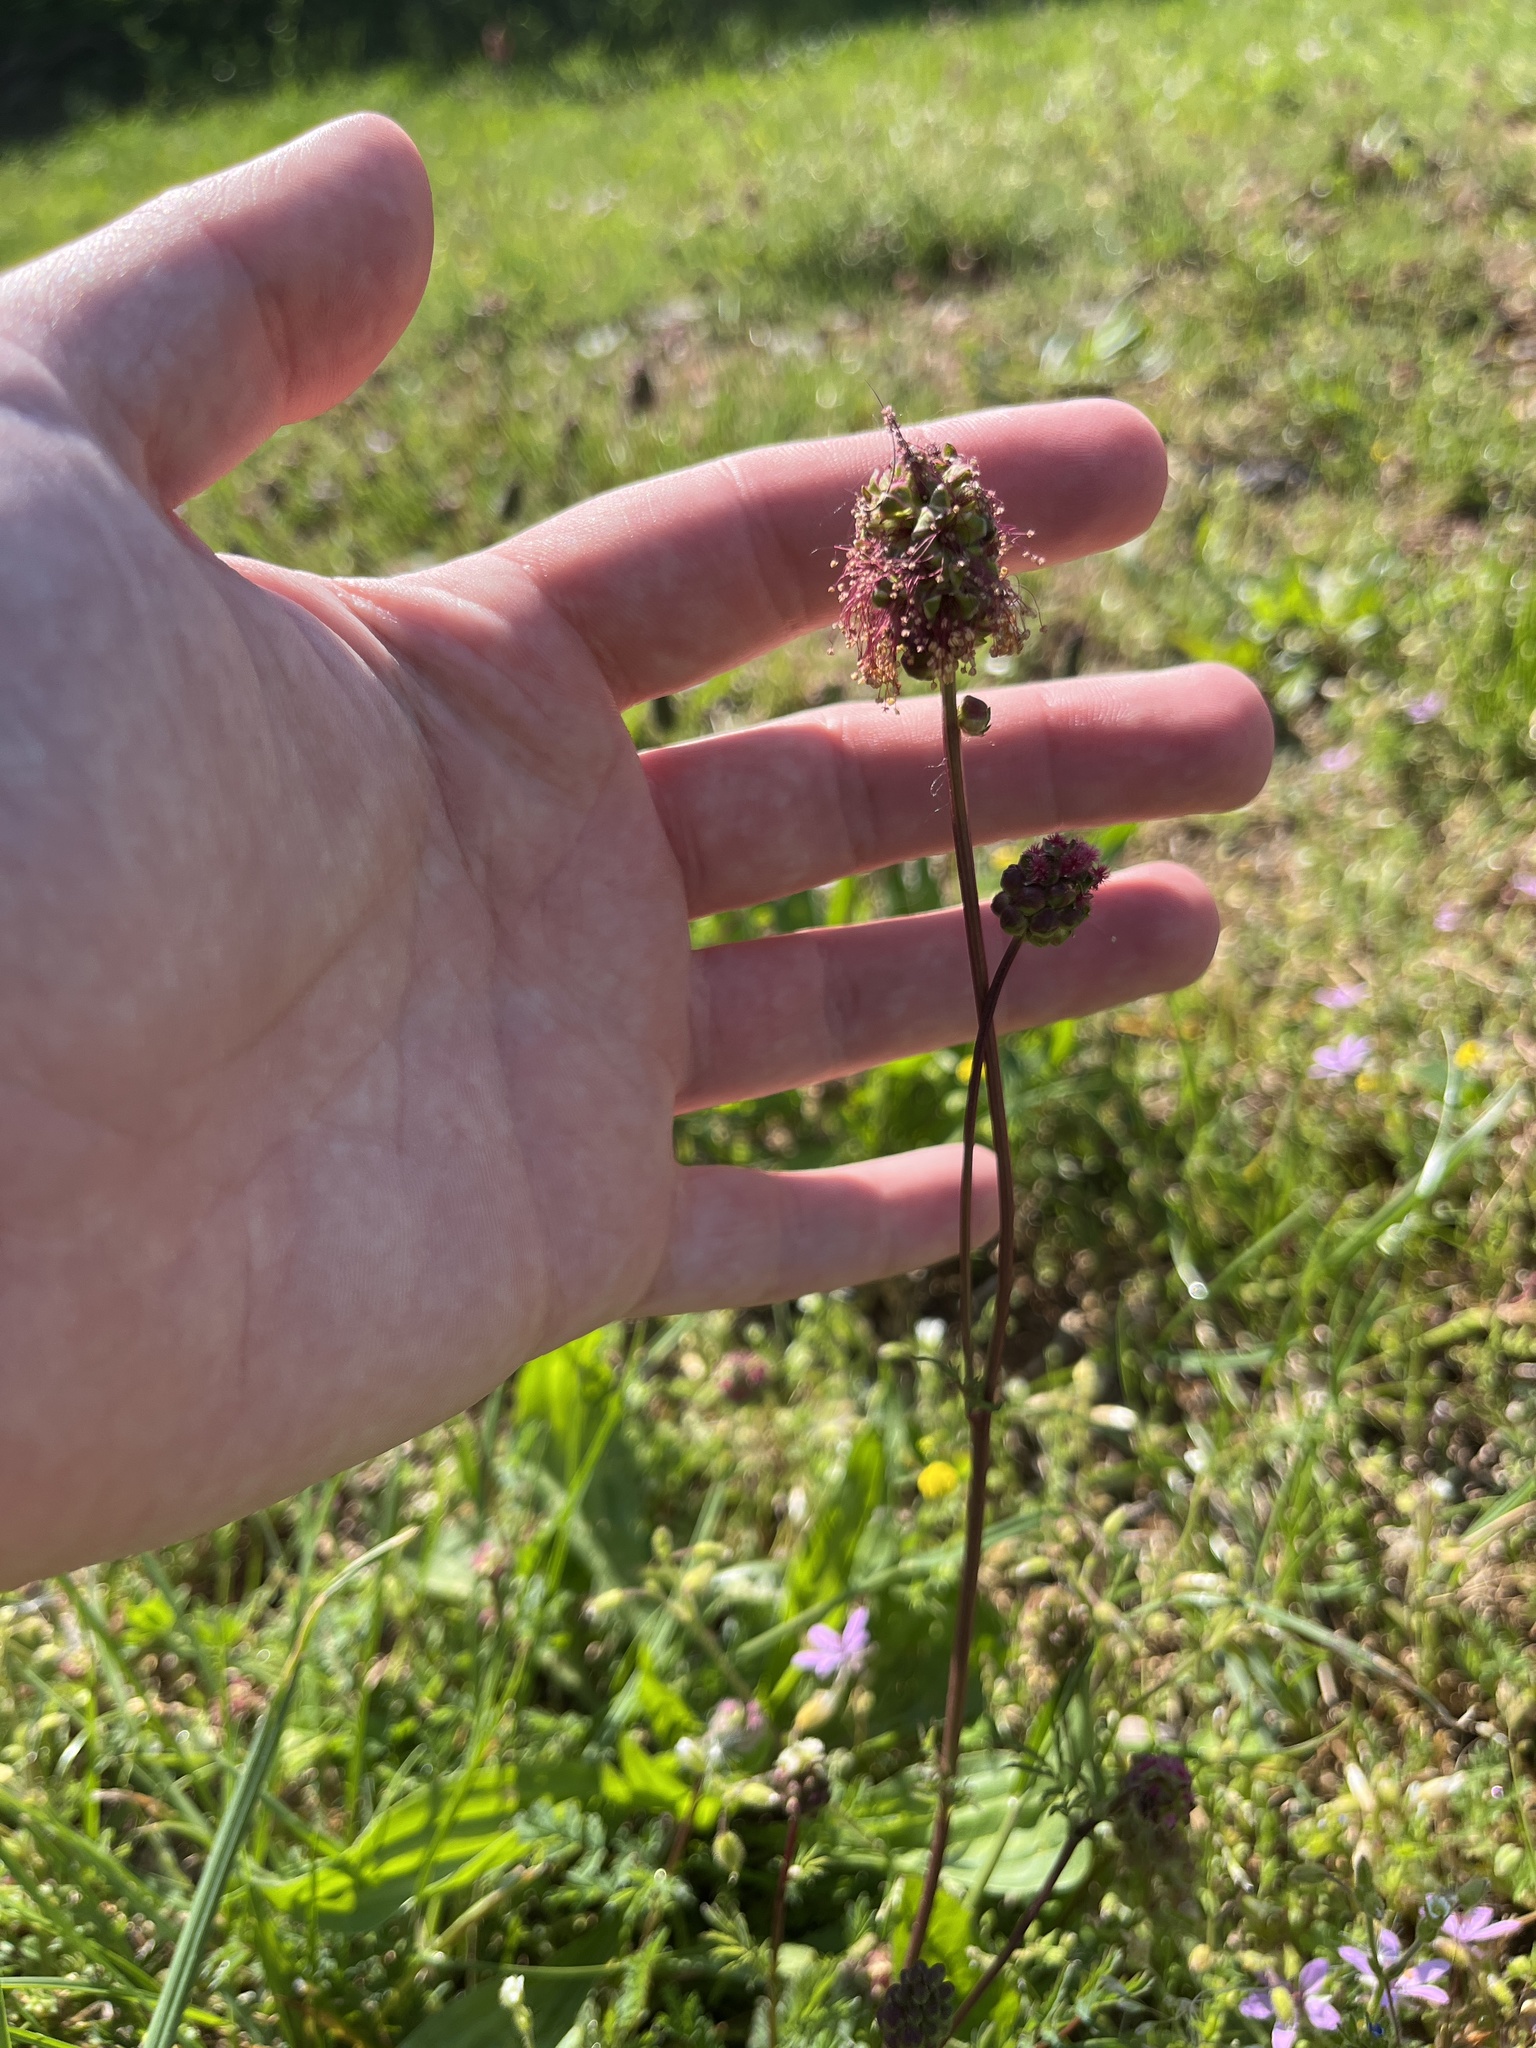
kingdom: Plantae
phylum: Tracheophyta
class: Magnoliopsida
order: Rosales
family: Rosaceae
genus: Poterium
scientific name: Poterium sanguisorba
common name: Salad burnet
